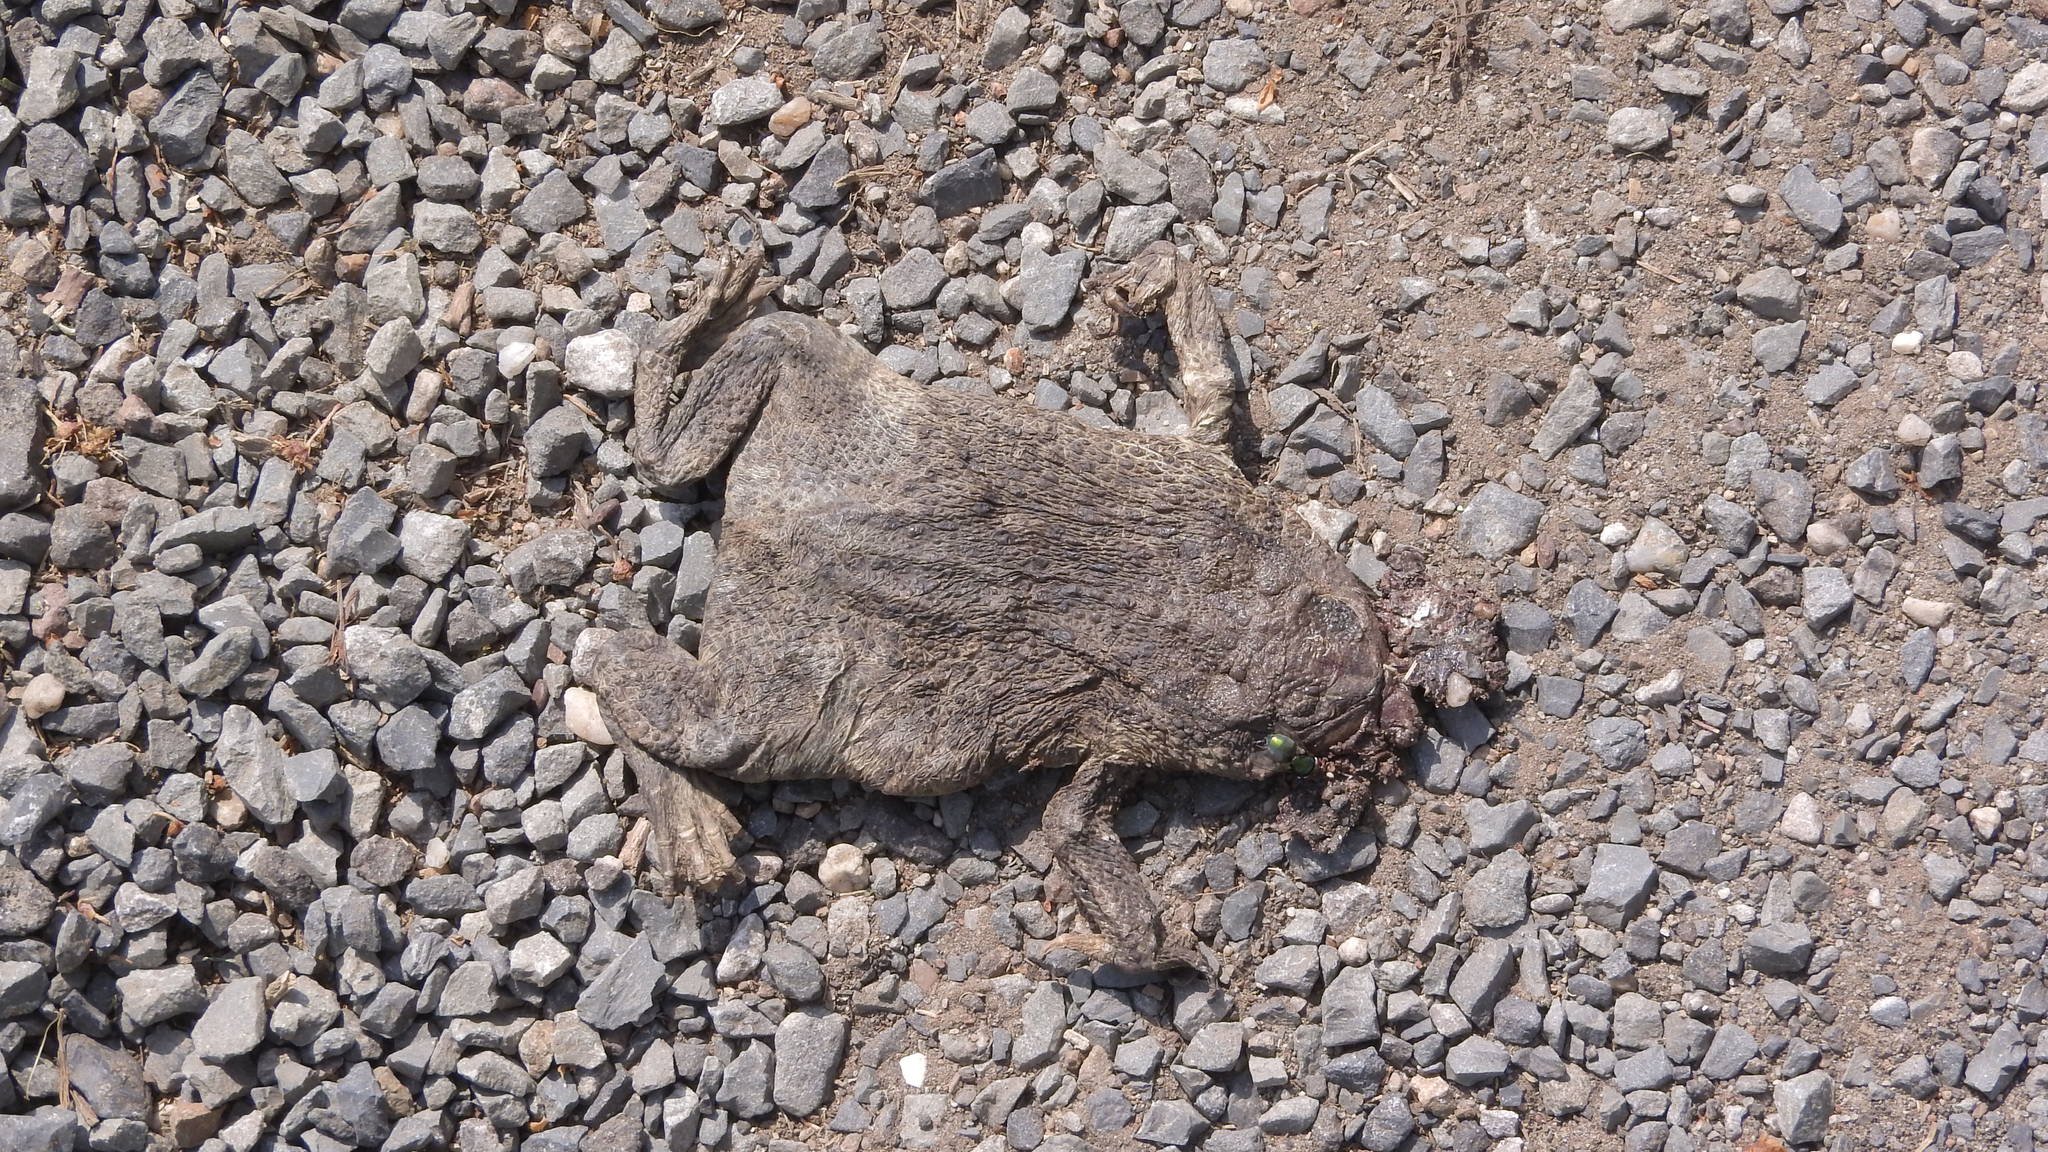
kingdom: Animalia
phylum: Chordata
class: Amphibia
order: Anura
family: Bufonidae
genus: Bufo
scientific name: Bufo bufo
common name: Common toad
